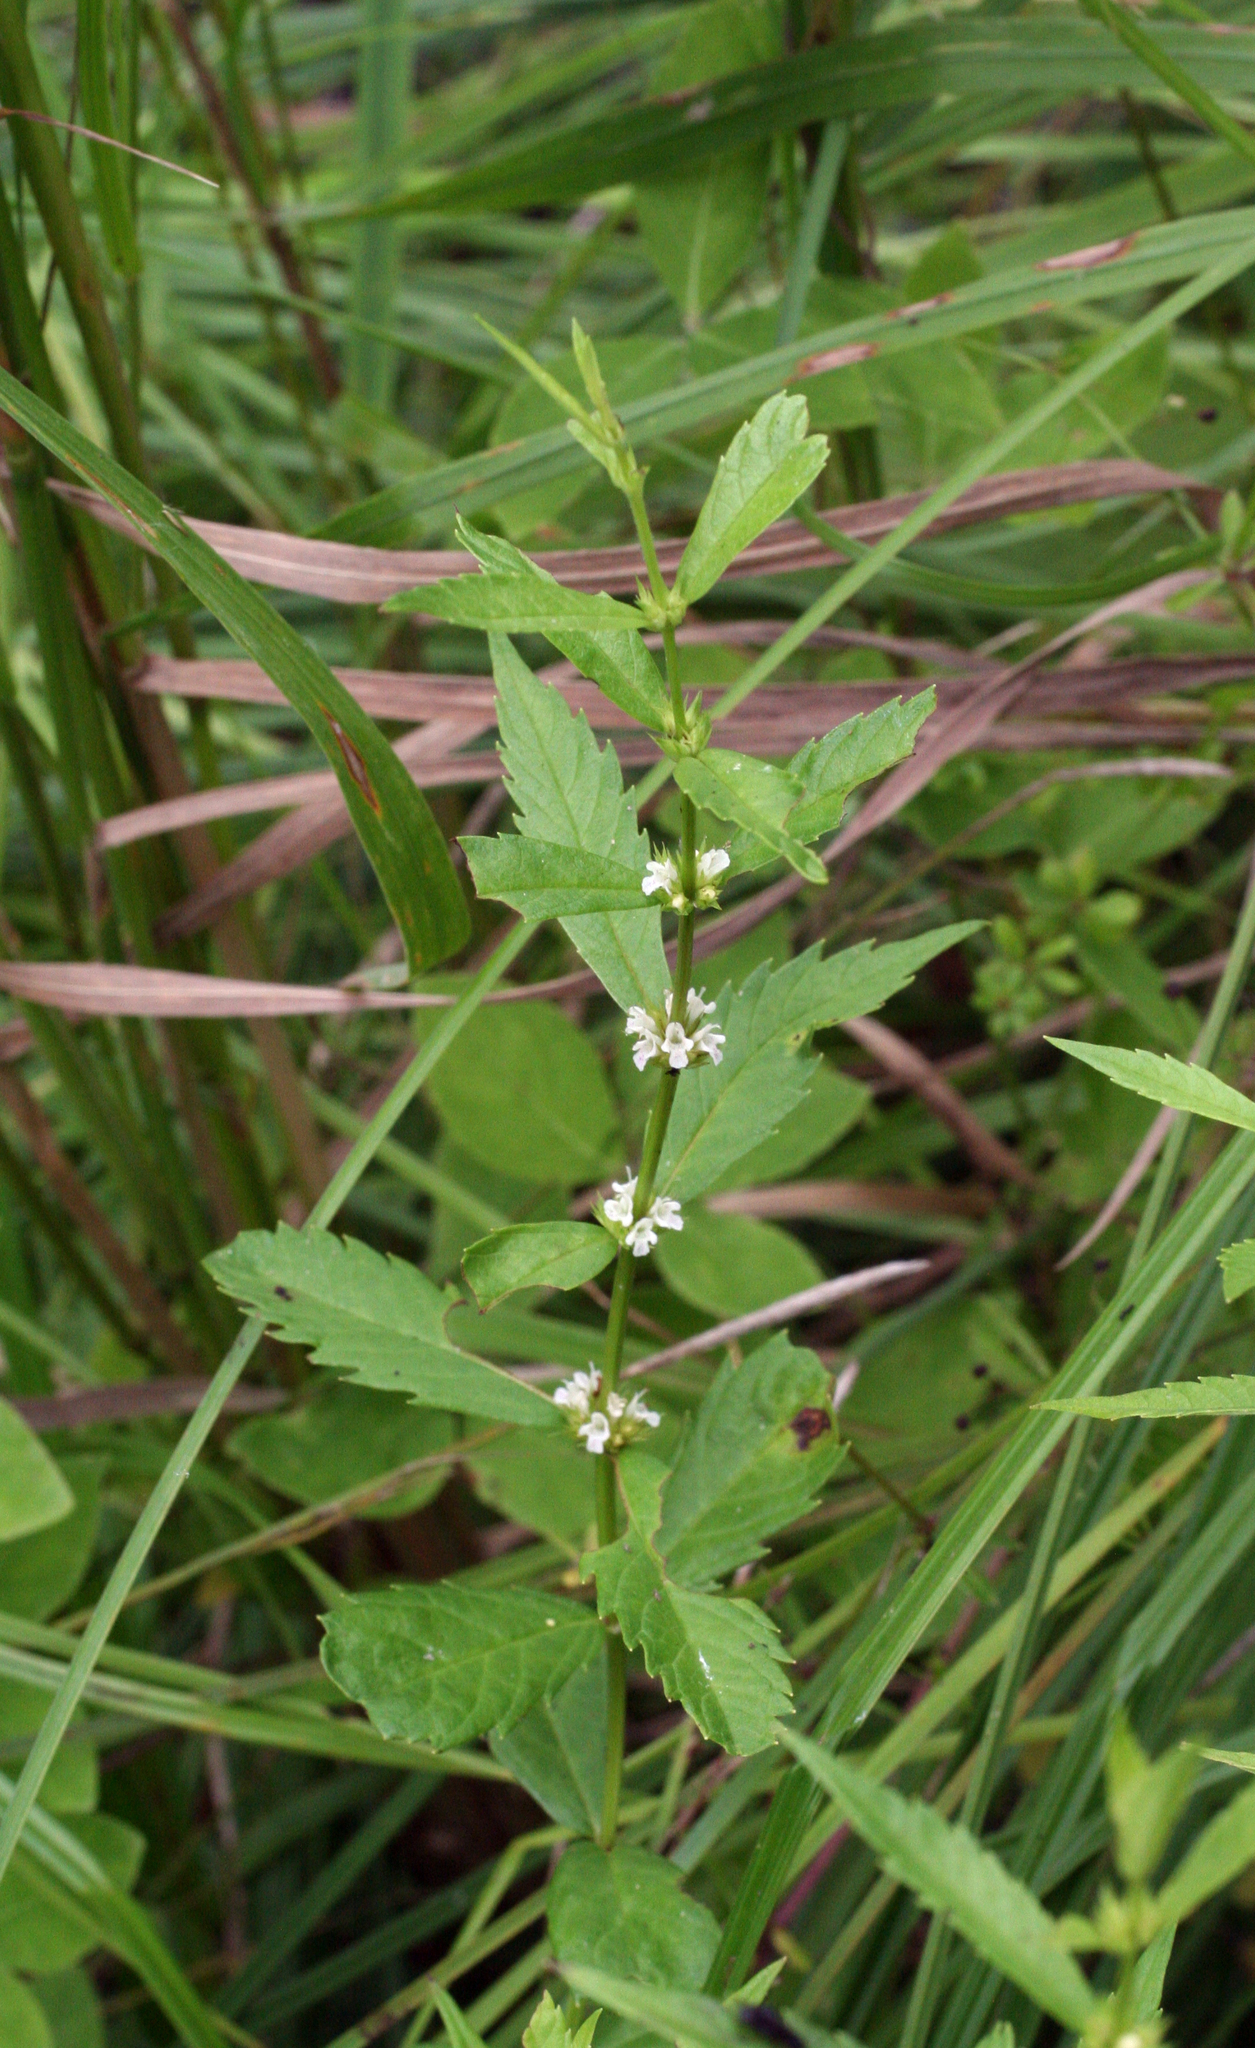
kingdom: Plantae
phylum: Tracheophyta
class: Magnoliopsida
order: Lamiales
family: Lamiaceae
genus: Lycopus
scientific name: Lycopus lucidus
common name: Shiny bugleweed
